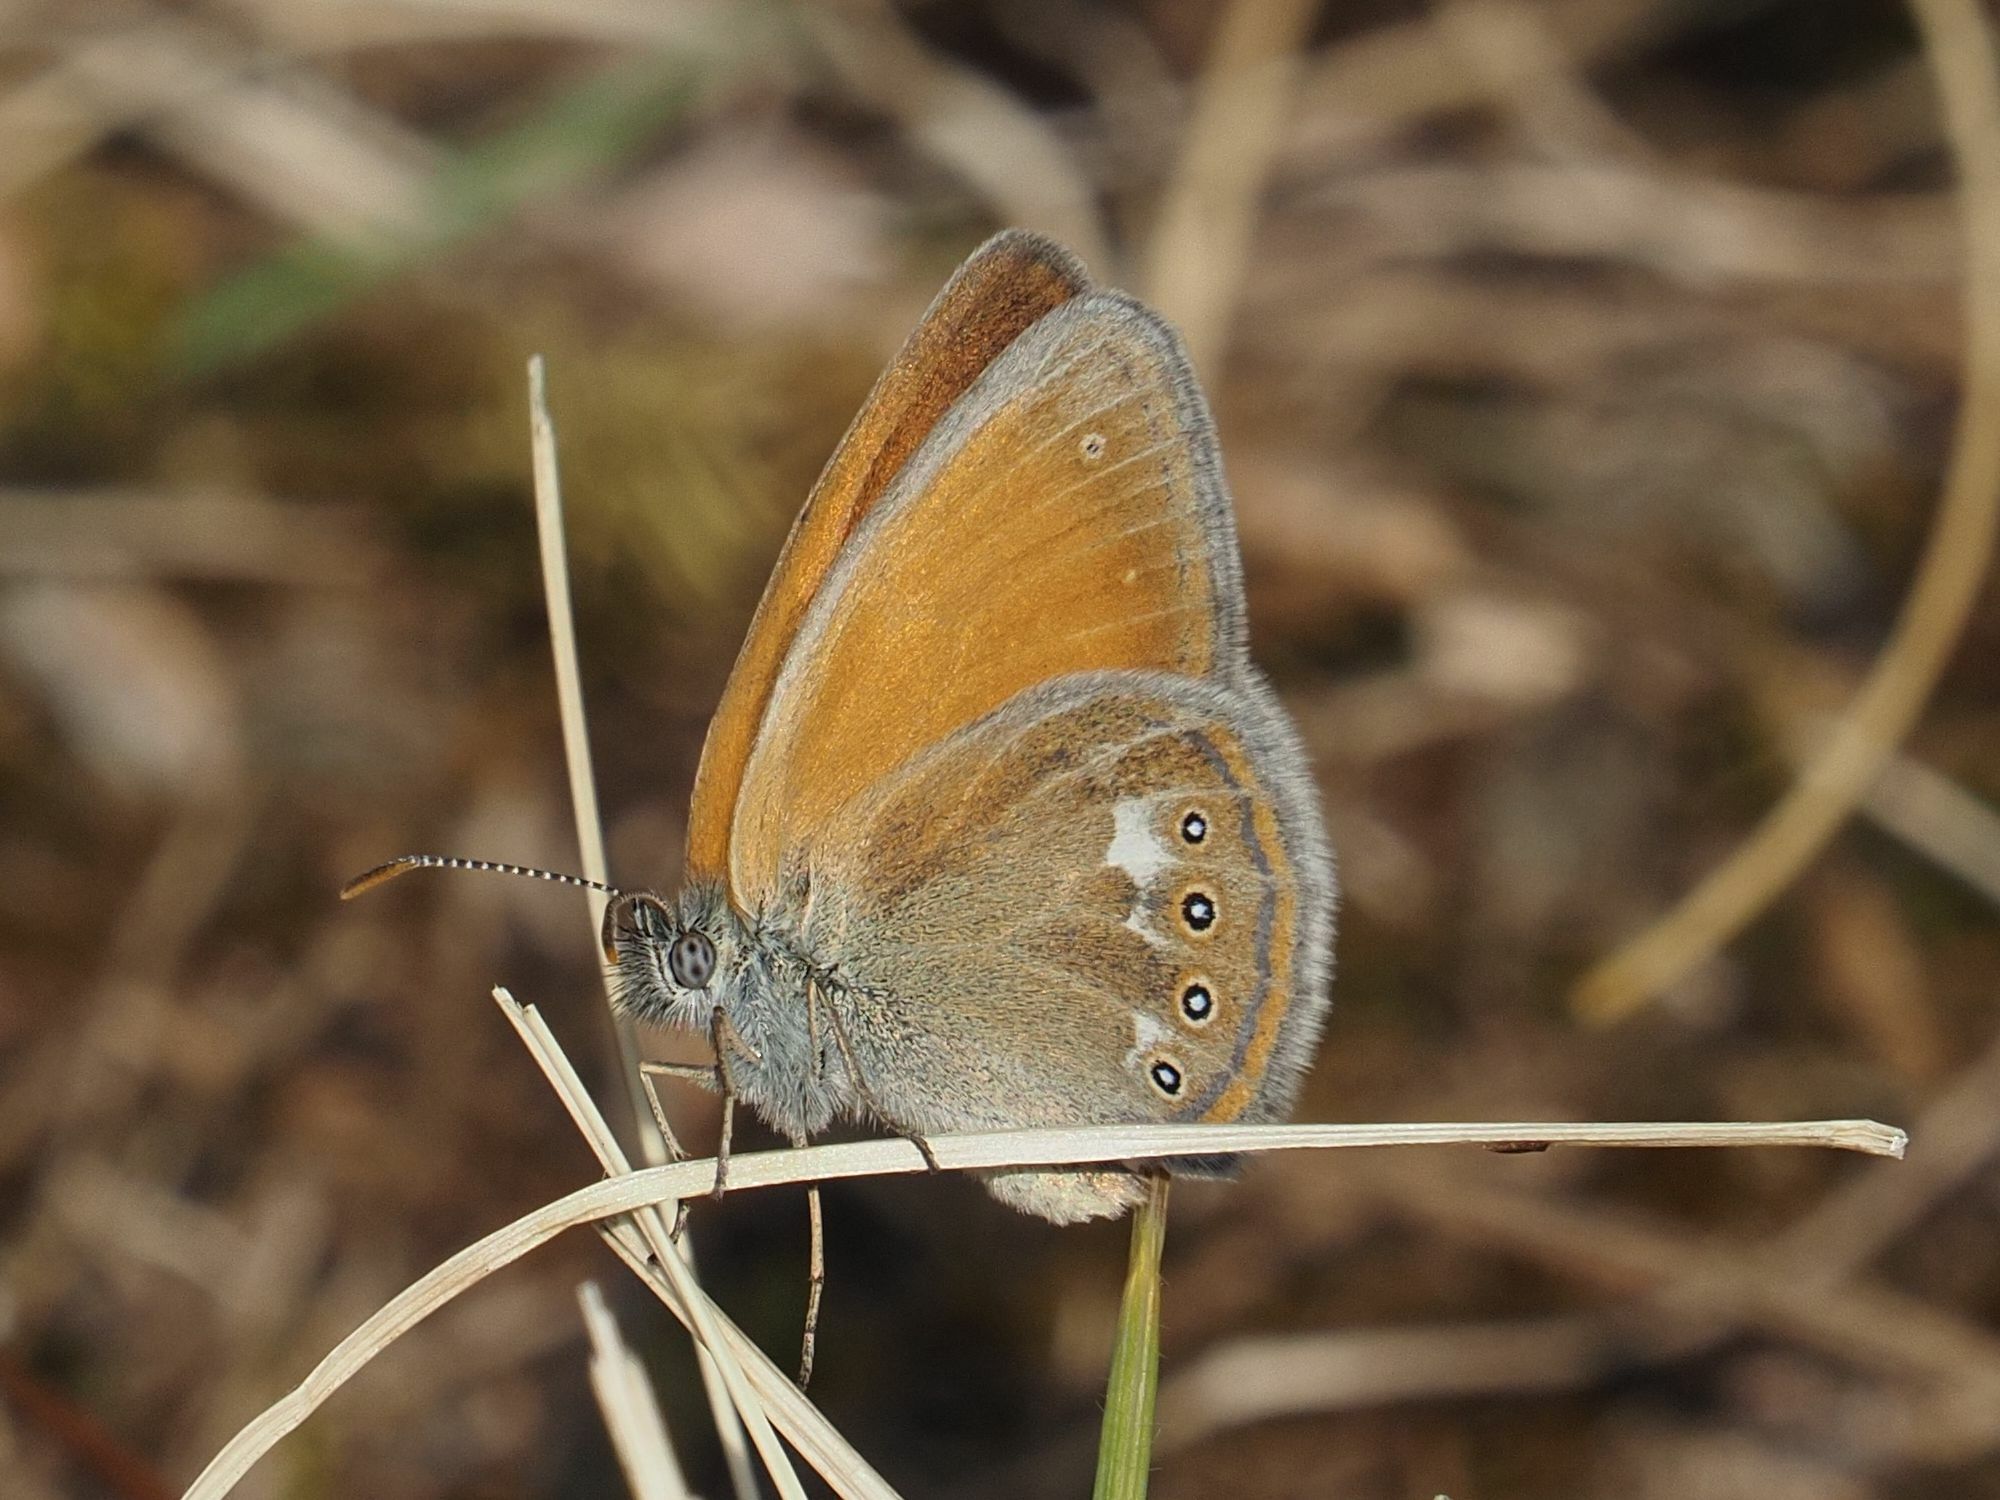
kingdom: Animalia
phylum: Arthropoda
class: Insecta
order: Lepidoptera
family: Nymphalidae
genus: Coenonympha
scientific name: Coenonympha iphis
